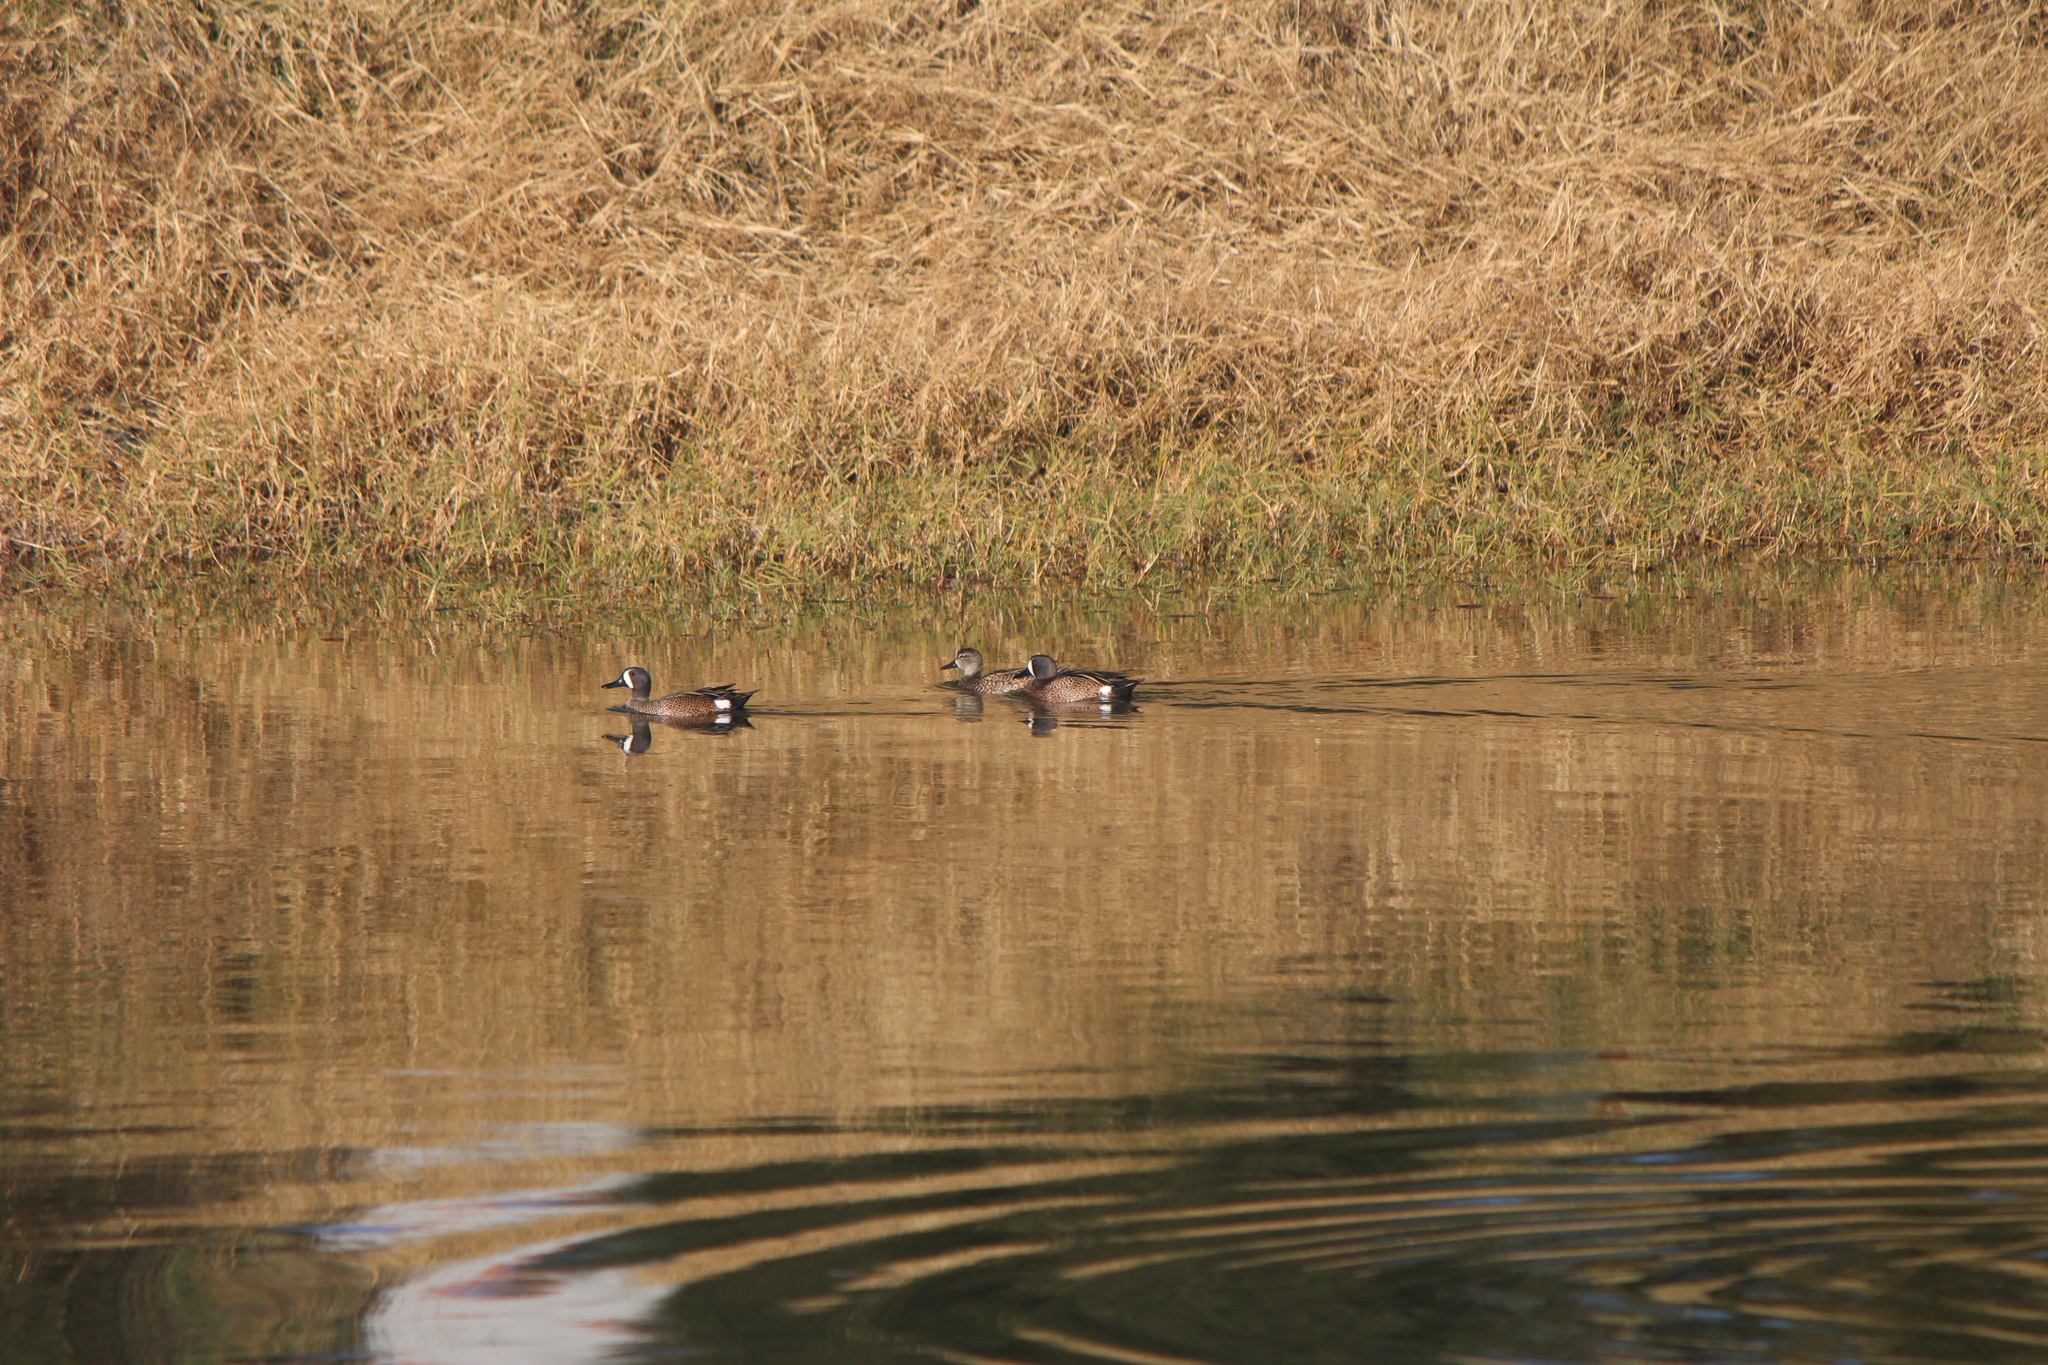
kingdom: Animalia
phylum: Chordata
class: Aves
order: Anseriformes
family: Anatidae
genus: Spatula
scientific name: Spatula discors
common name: Blue-winged teal
